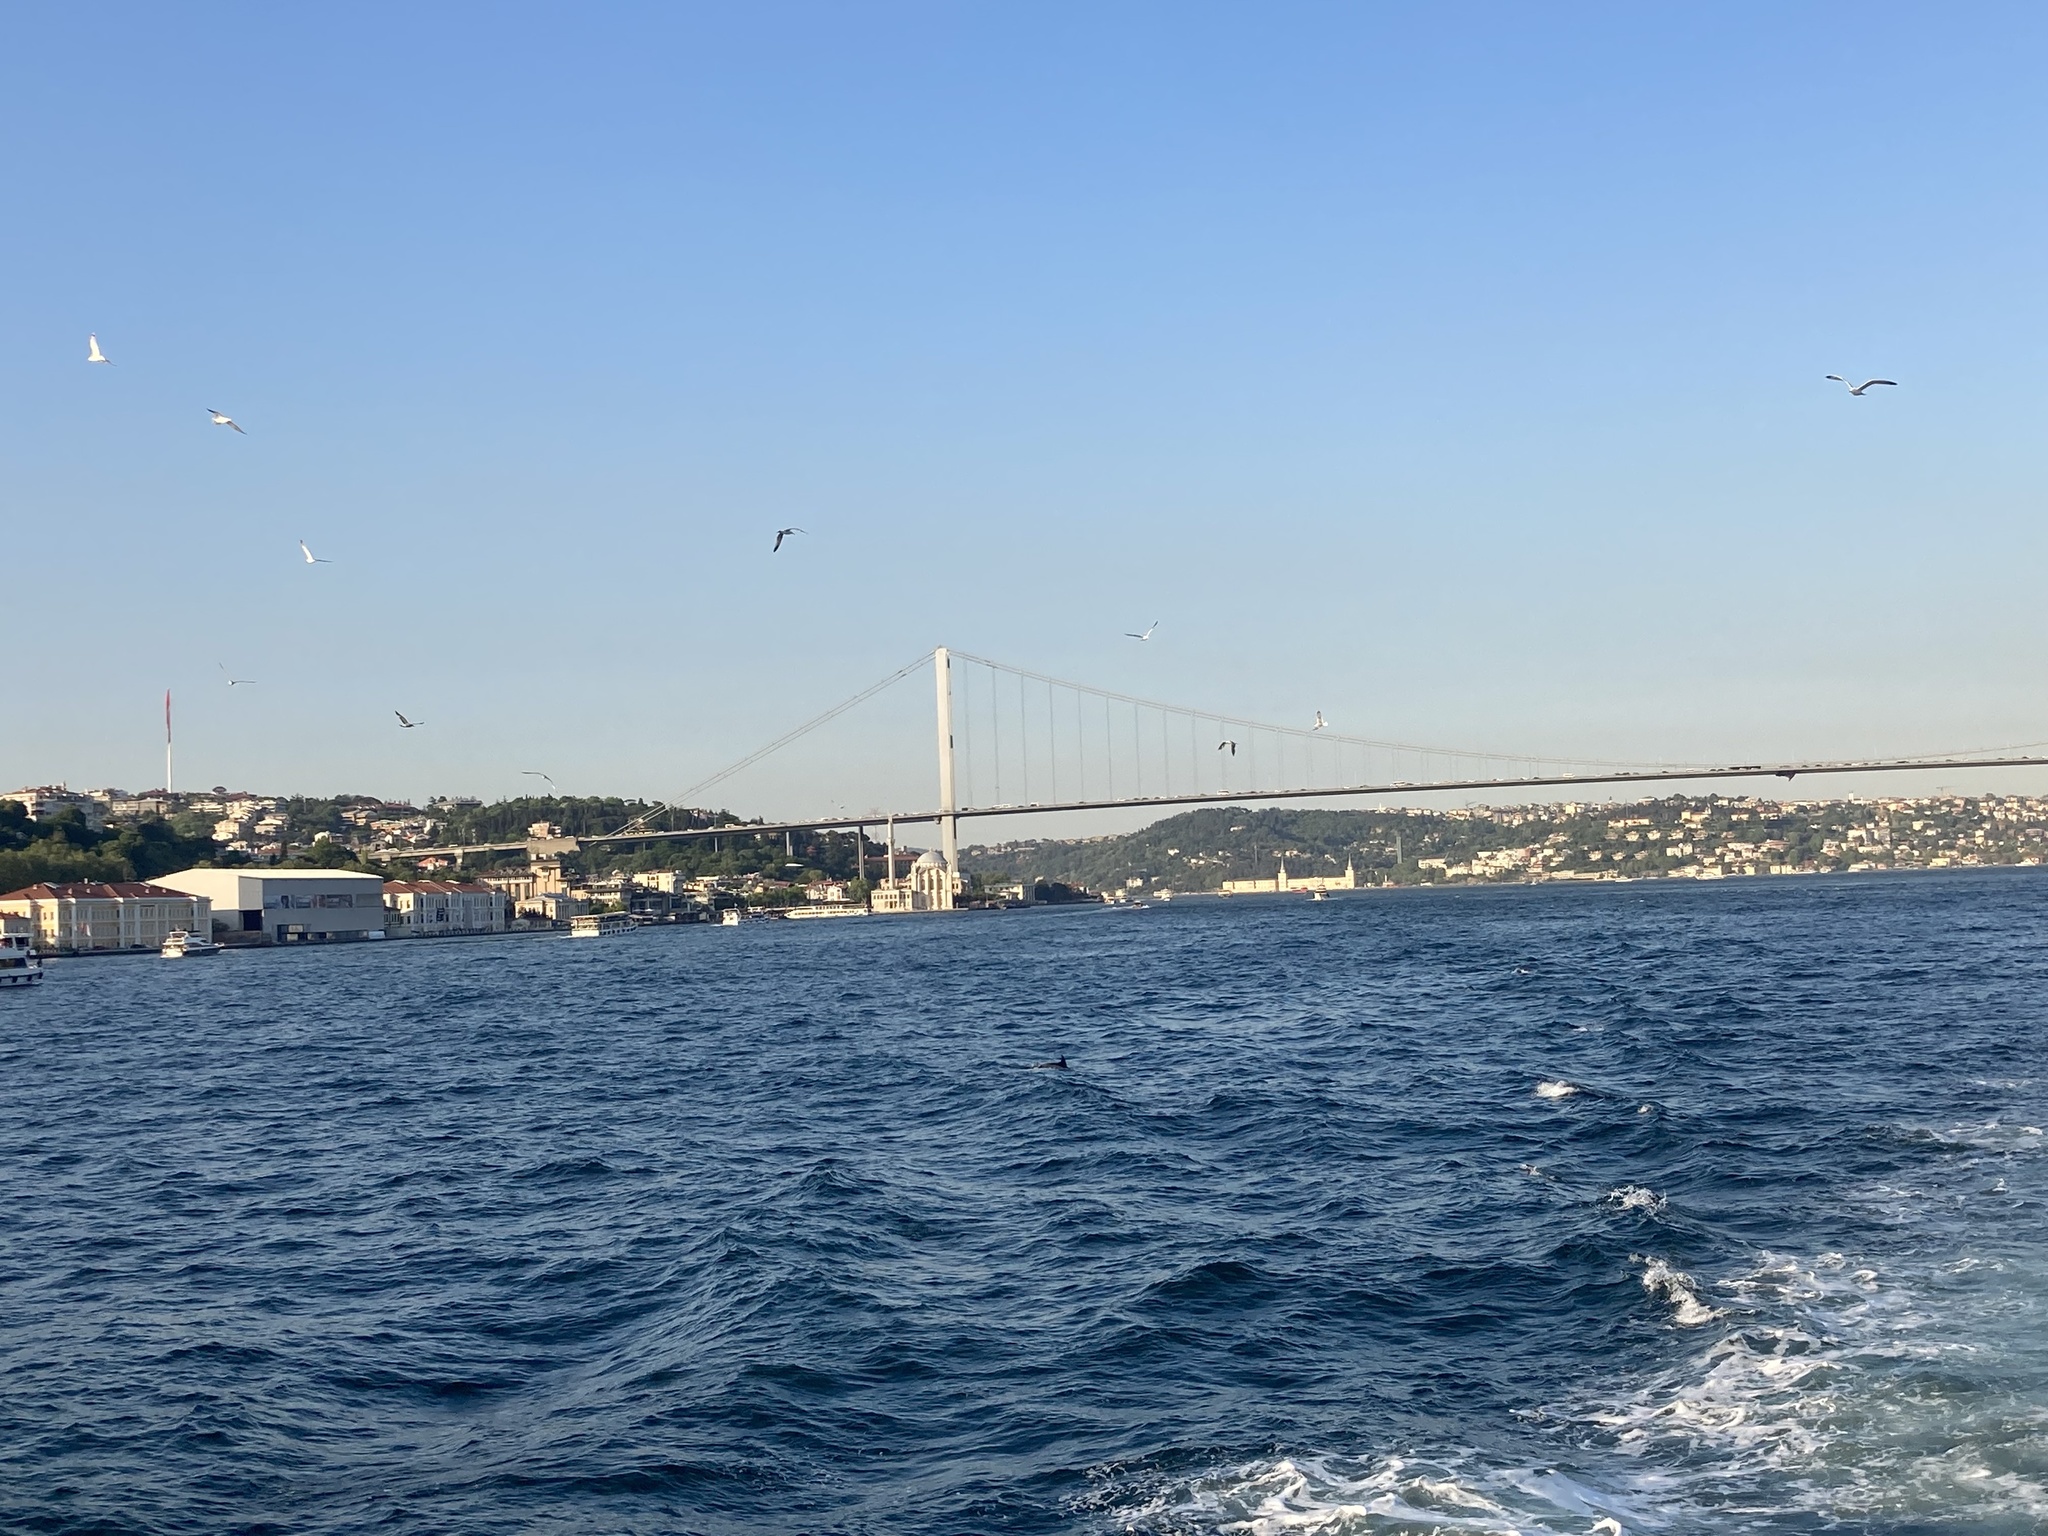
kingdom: Animalia
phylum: Chordata
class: Mammalia
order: Cetacea
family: Delphinidae
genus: Delphinus
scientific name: Delphinus delphis
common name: Common dolphin
